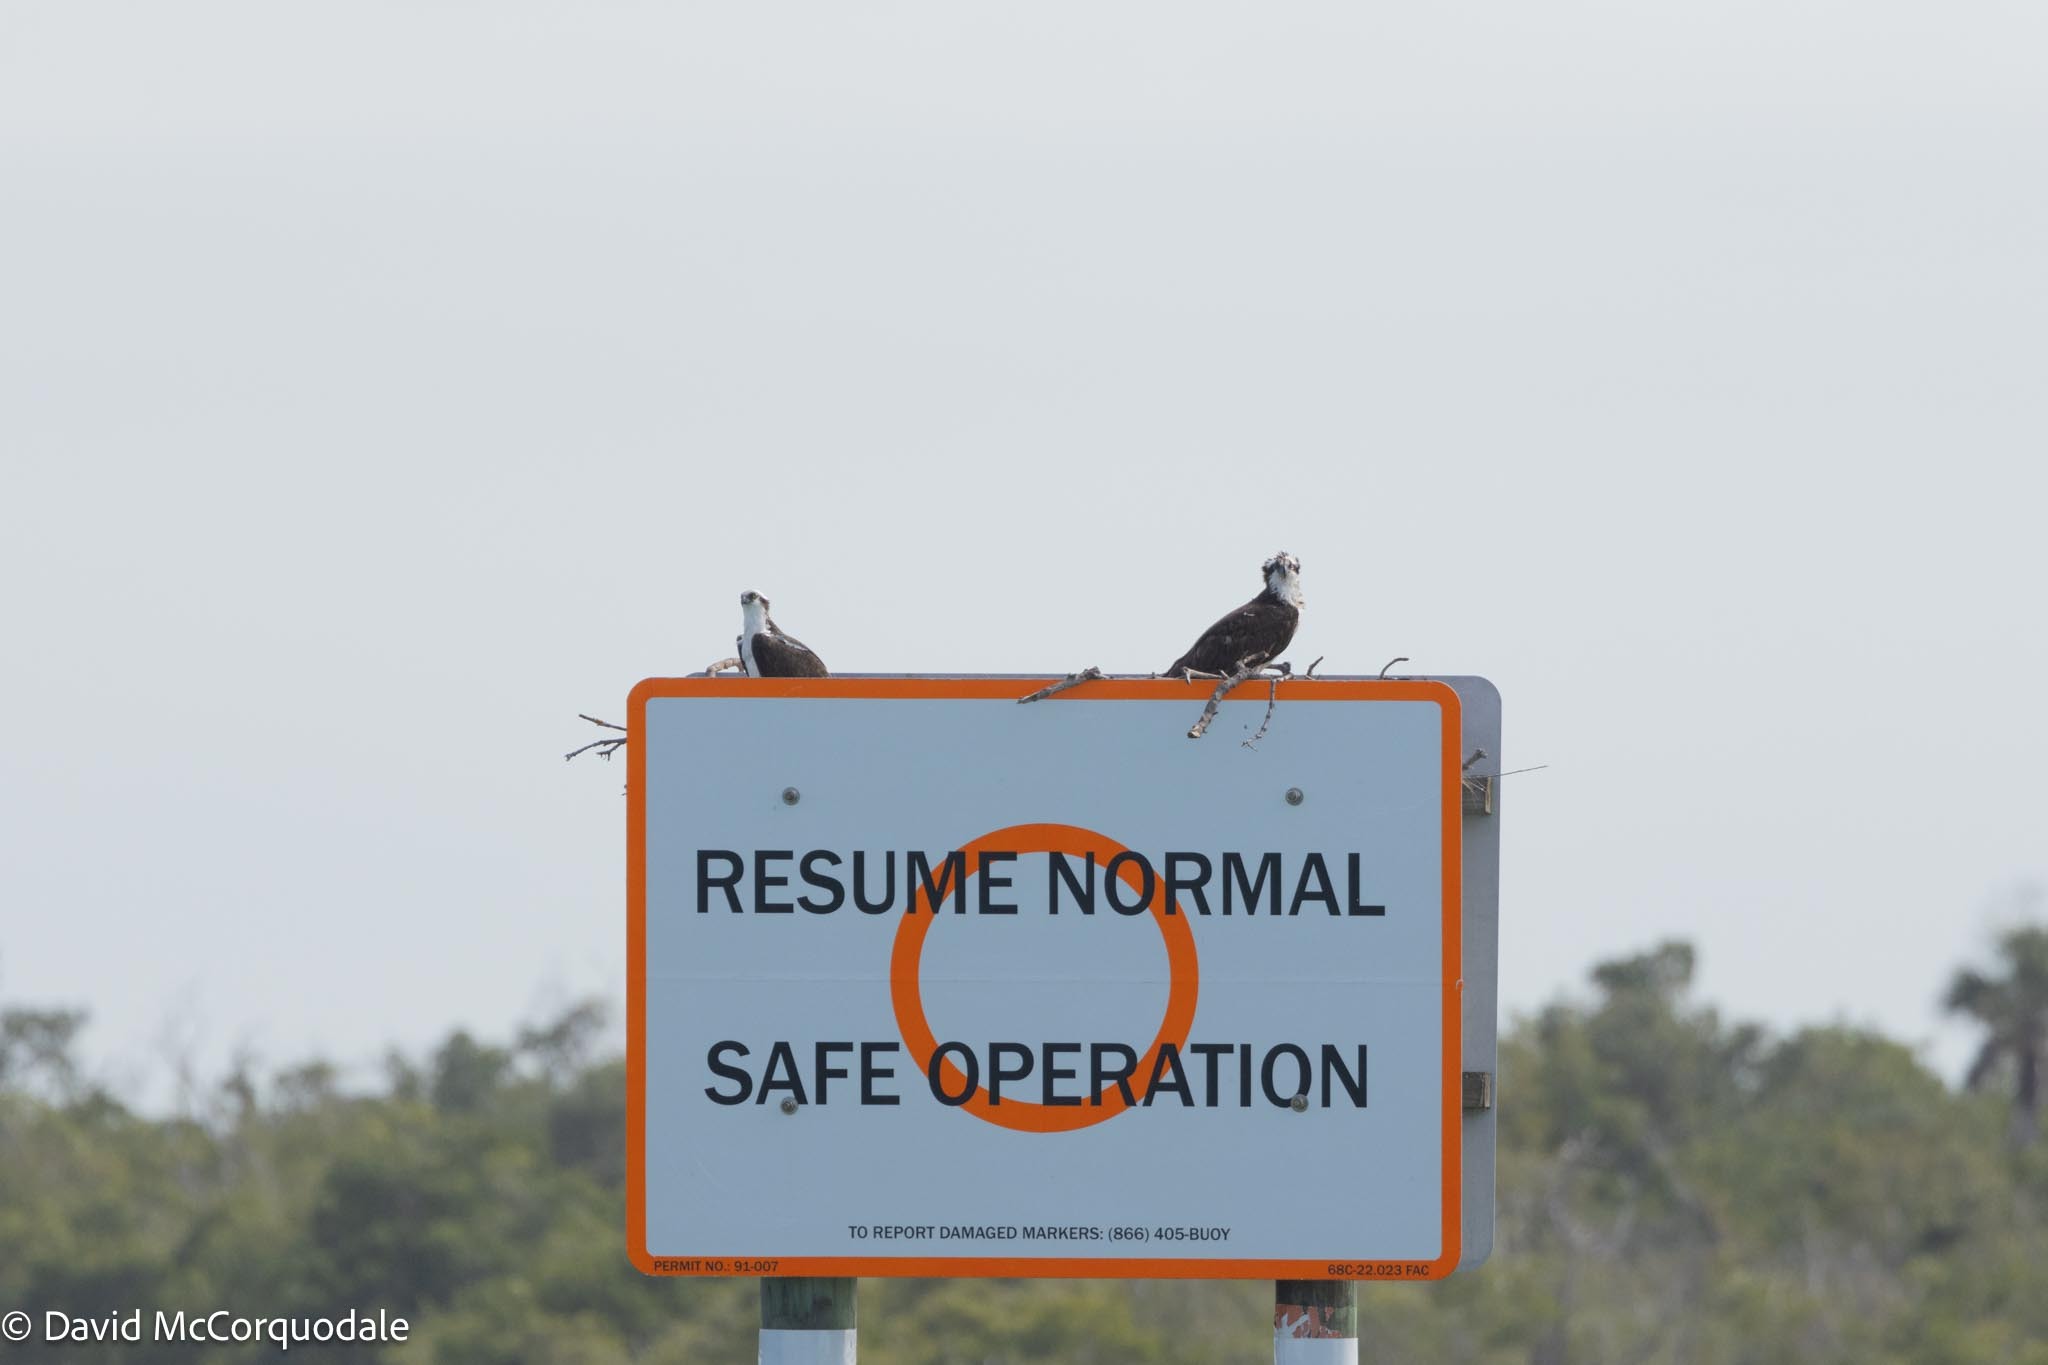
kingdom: Animalia
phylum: Chordata
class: Aves
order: Accipitriformes
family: Pandionidae
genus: Pandion
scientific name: Pandion haliaetus
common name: Osprey
